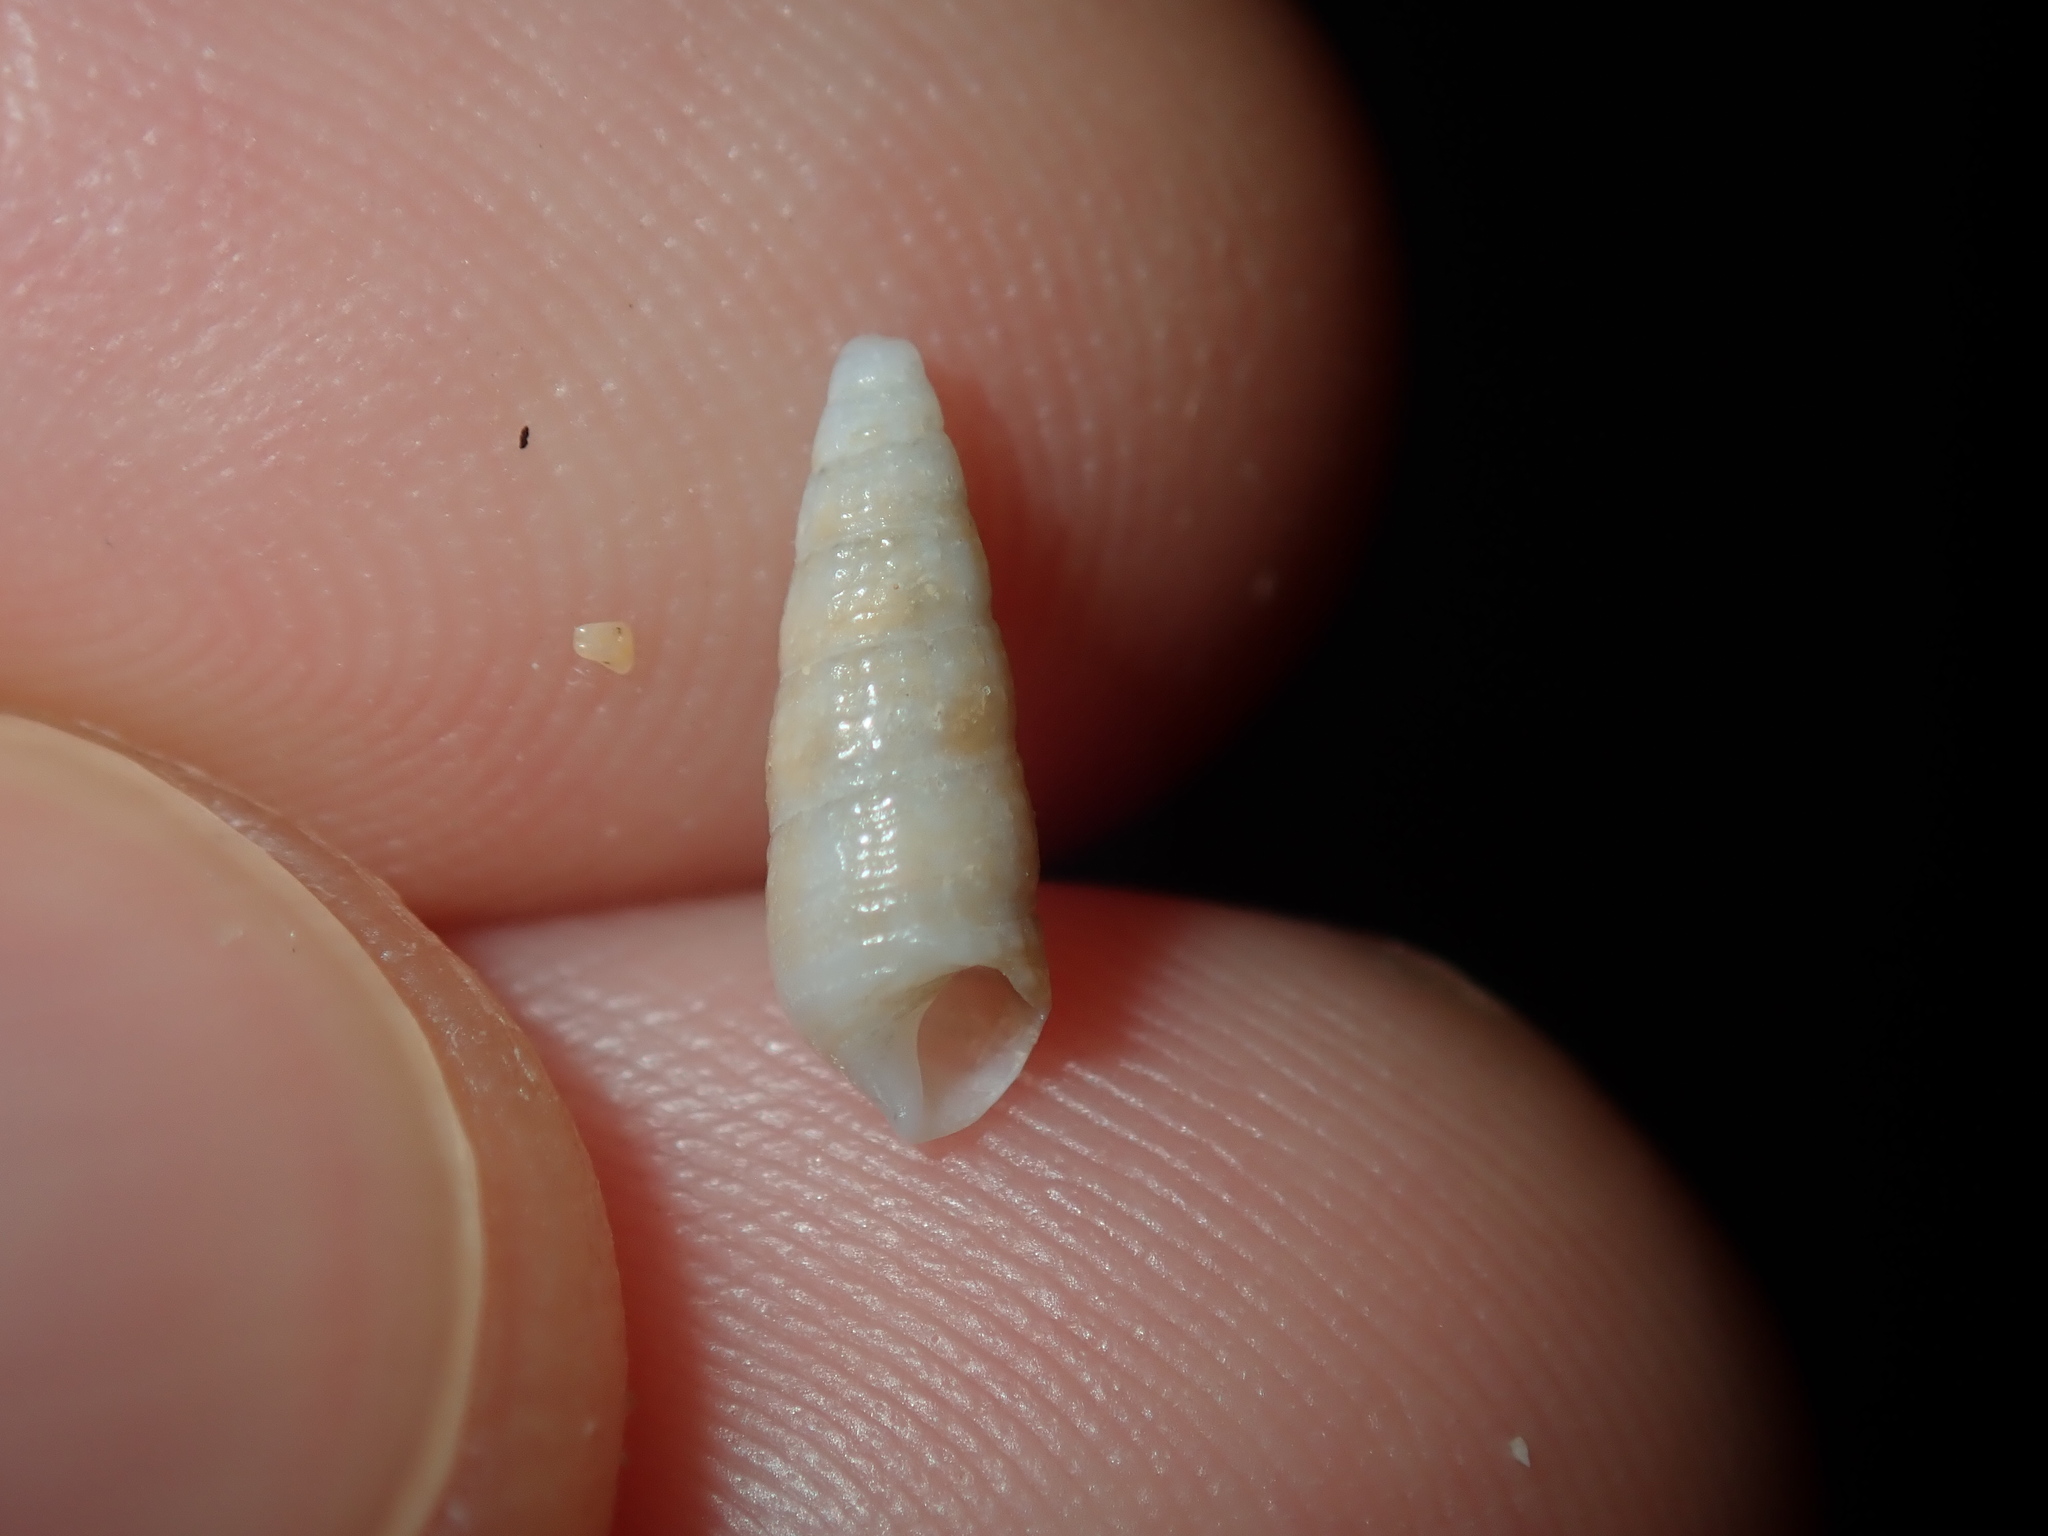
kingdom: Animalia
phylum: Mollusca
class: Gastropoda
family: Cerithiidae
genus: Cacozeliana
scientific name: Cacozeliana granarium
